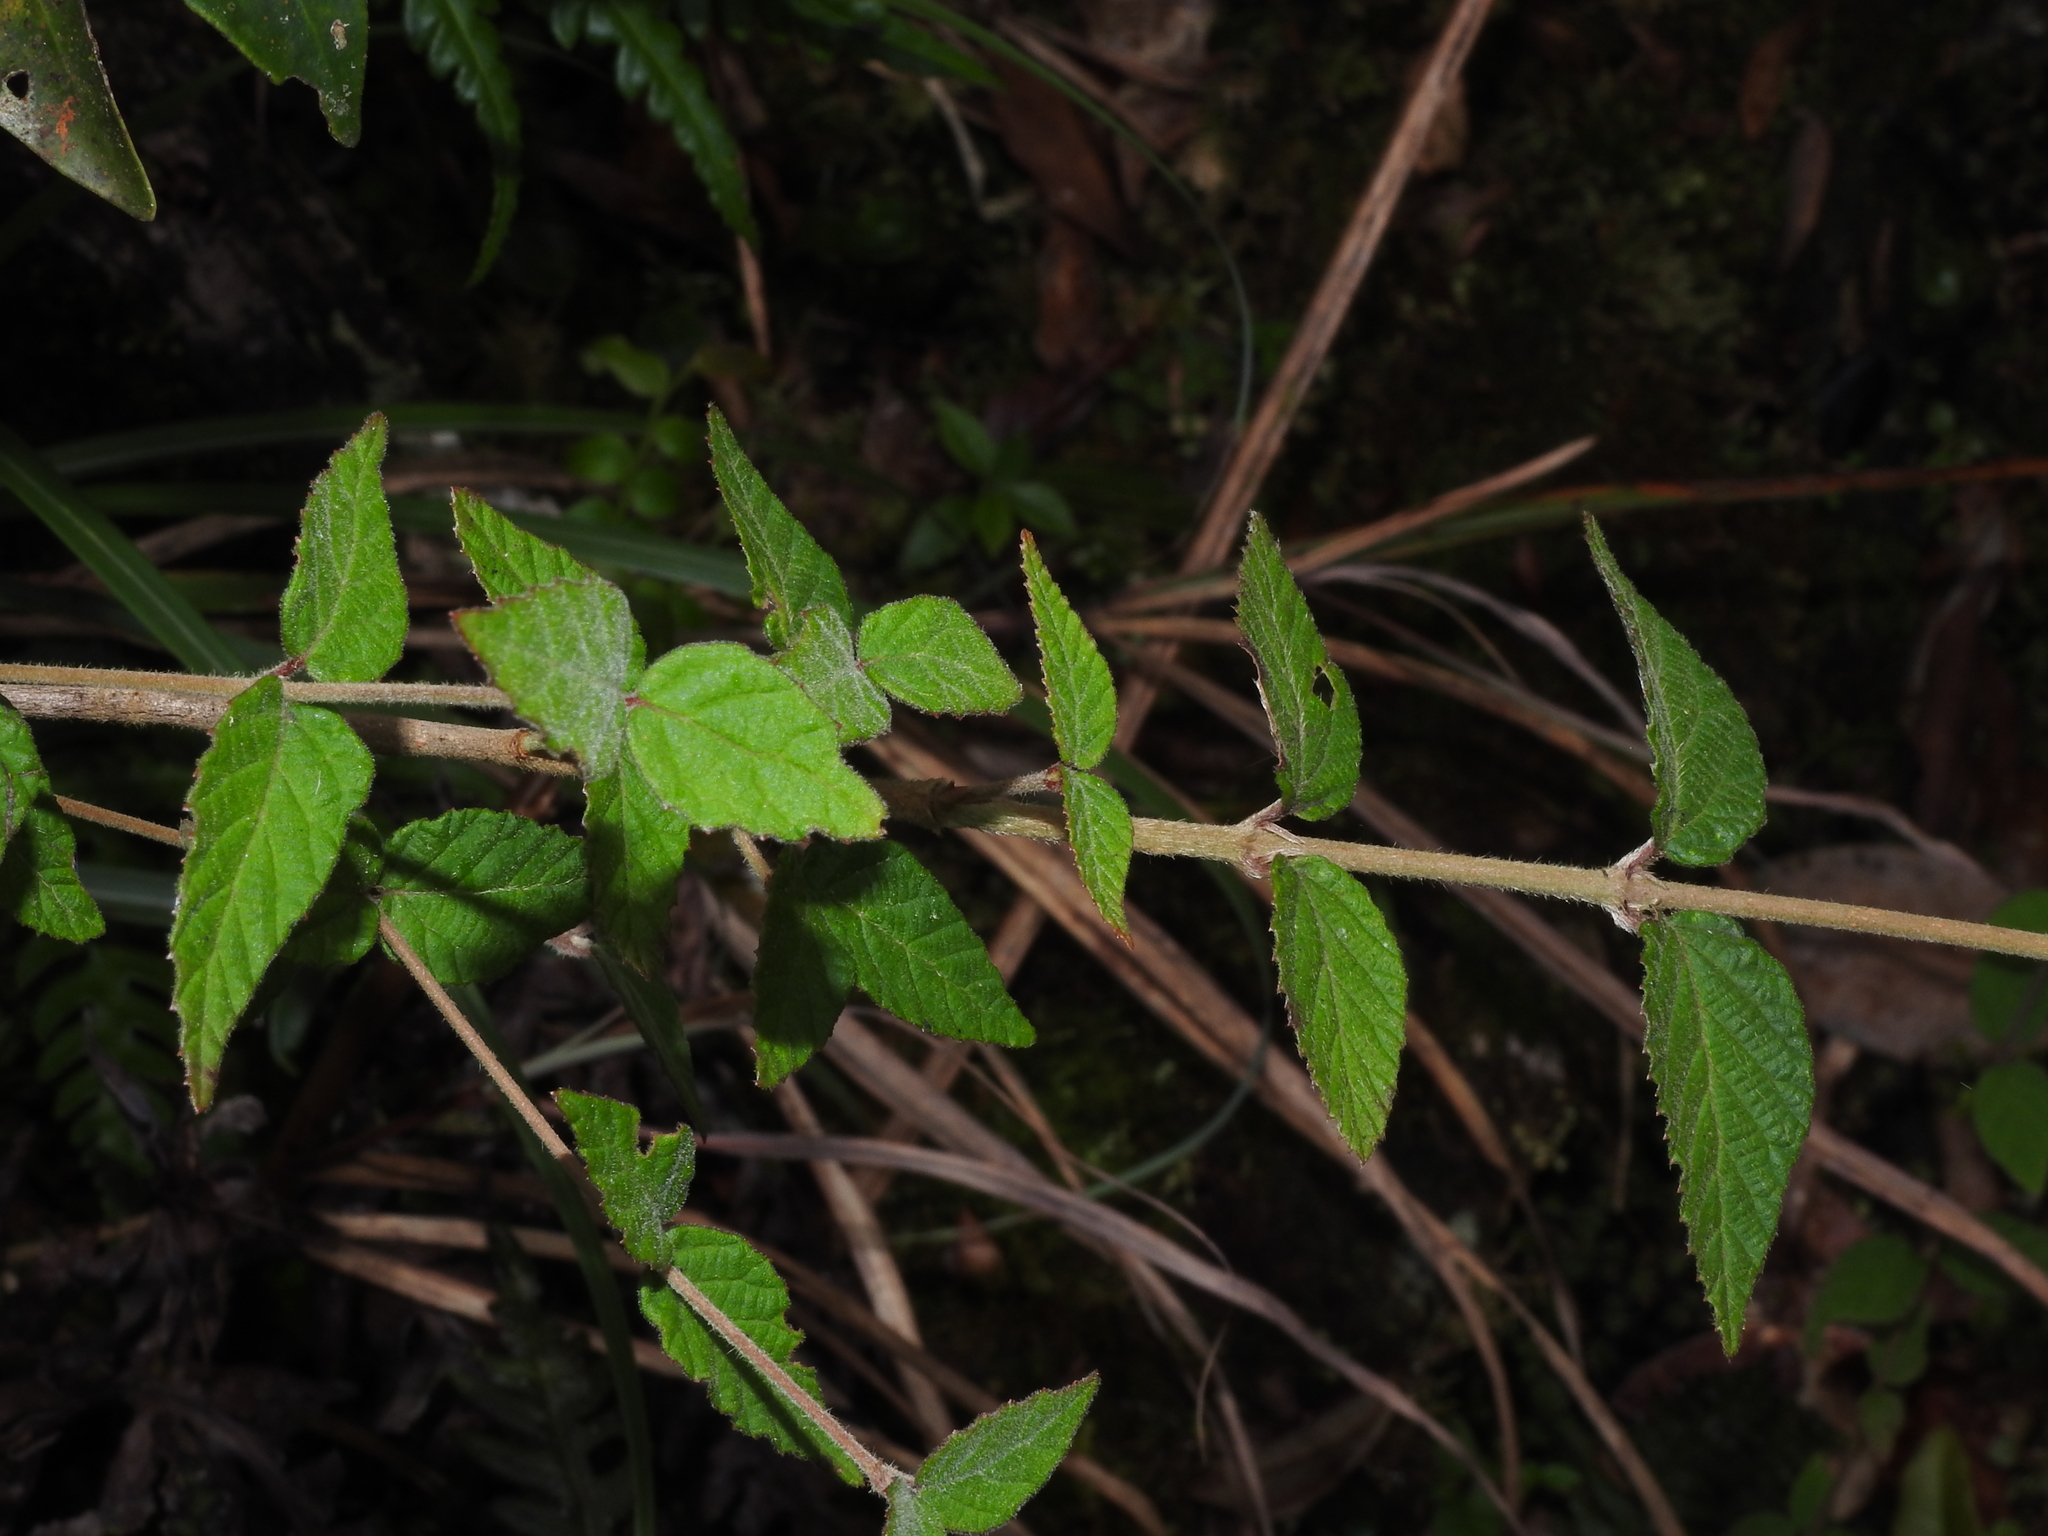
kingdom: Plantae
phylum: Tracheophyta
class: Magnoliopsida
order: Dipsacales
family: Viburnaceae
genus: Viburnum
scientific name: Viburnum erosum
